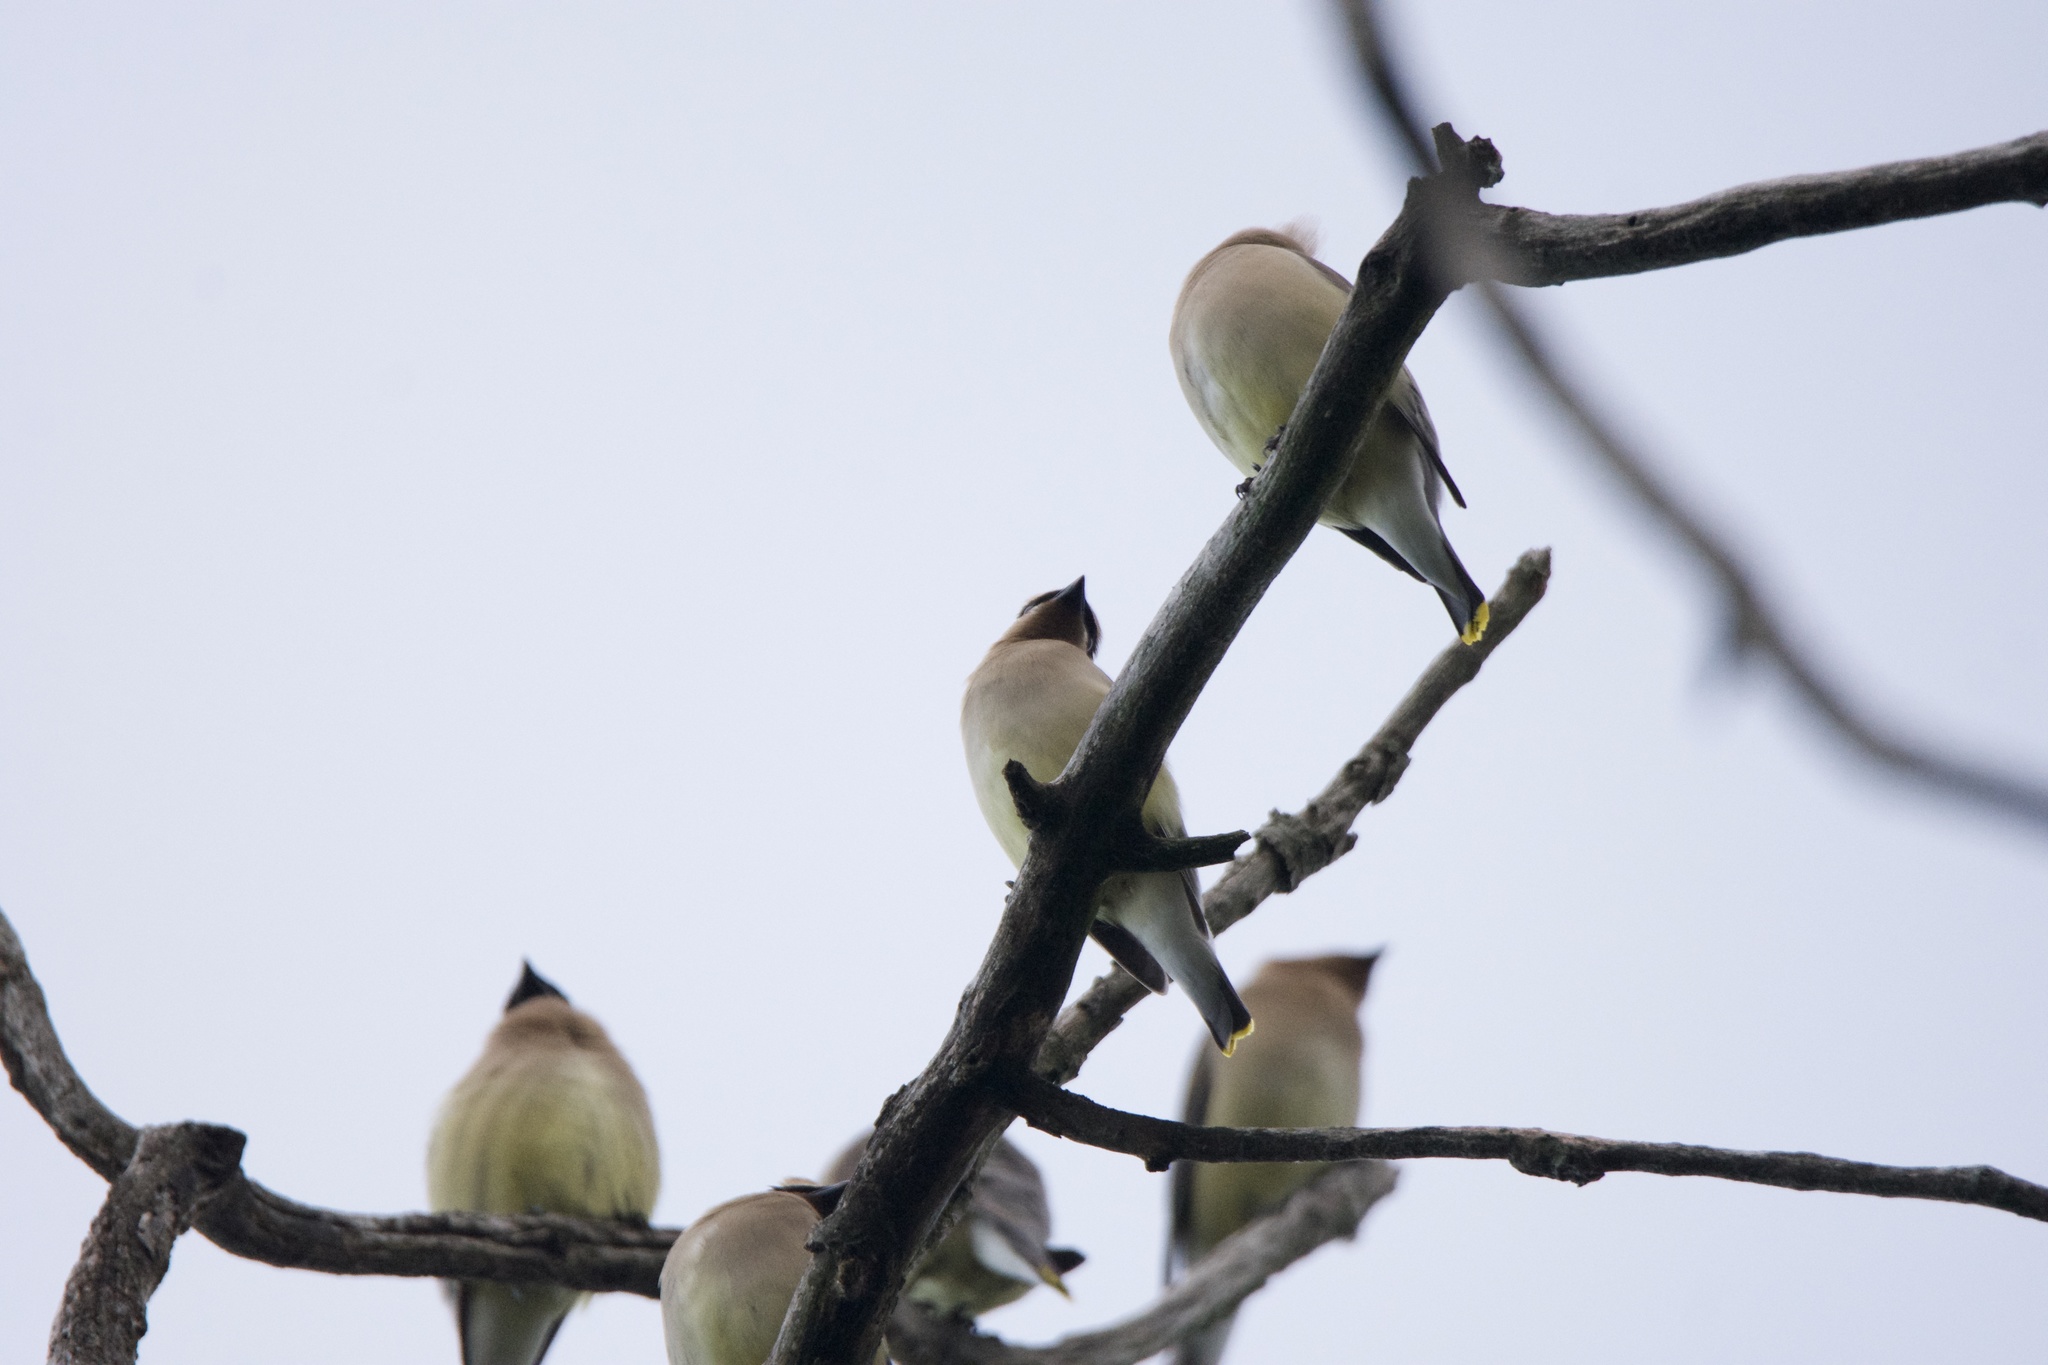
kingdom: Animalia
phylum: Chordata
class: Aves
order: Passeriformes
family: Bombycillidae
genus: Bombycilla
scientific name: Bombycilla cedrorum
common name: Cedar waxwing
